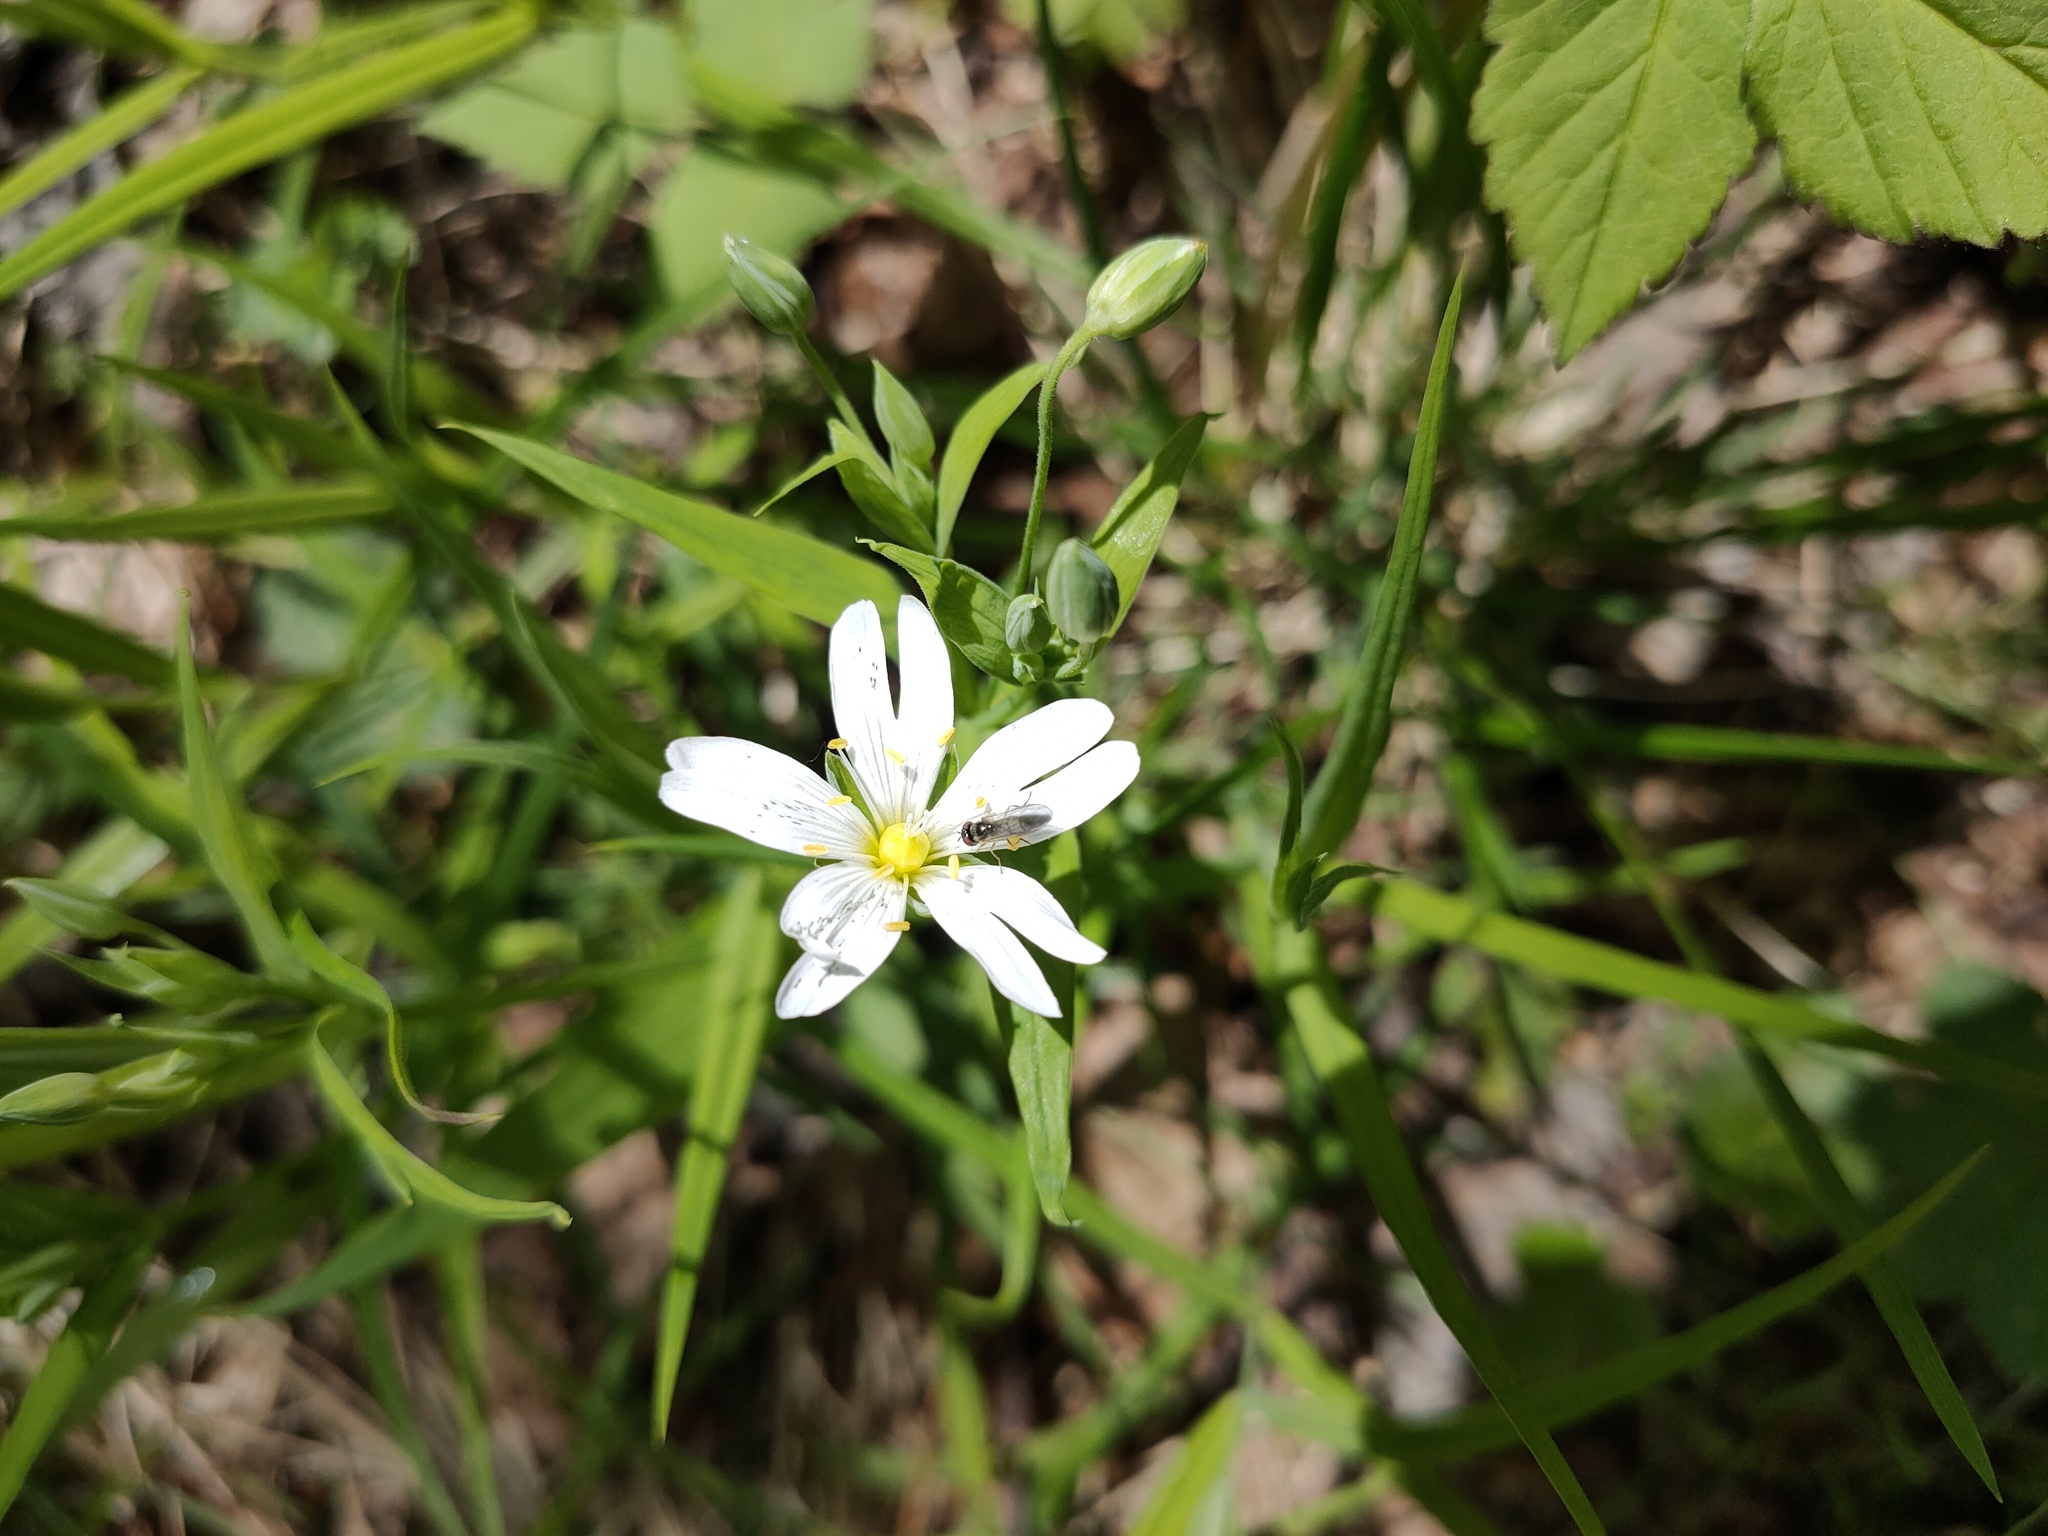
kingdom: Plantae
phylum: Tracheophyta
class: Magnoliopsida
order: Caryophyllales
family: Caryophyllaceae
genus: Rabelera
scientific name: Rabelera holostea
